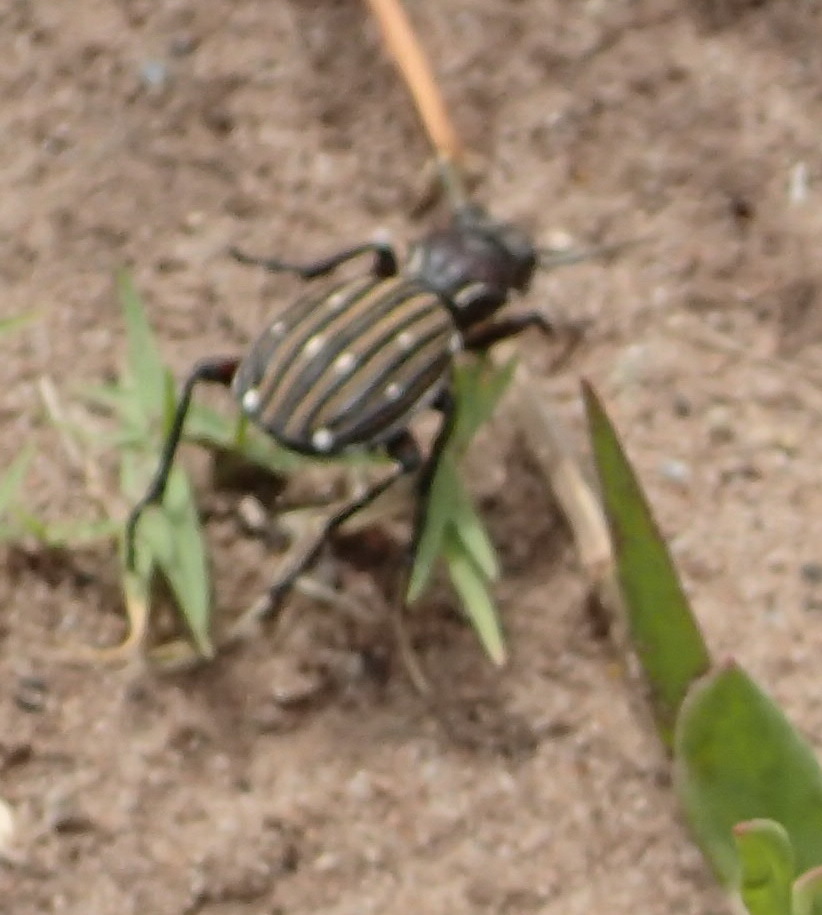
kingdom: Animalia
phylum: Arthropoda
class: Insecta
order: Coleoptera
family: Carabidae
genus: Anthia
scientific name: Anthia decemguttata
